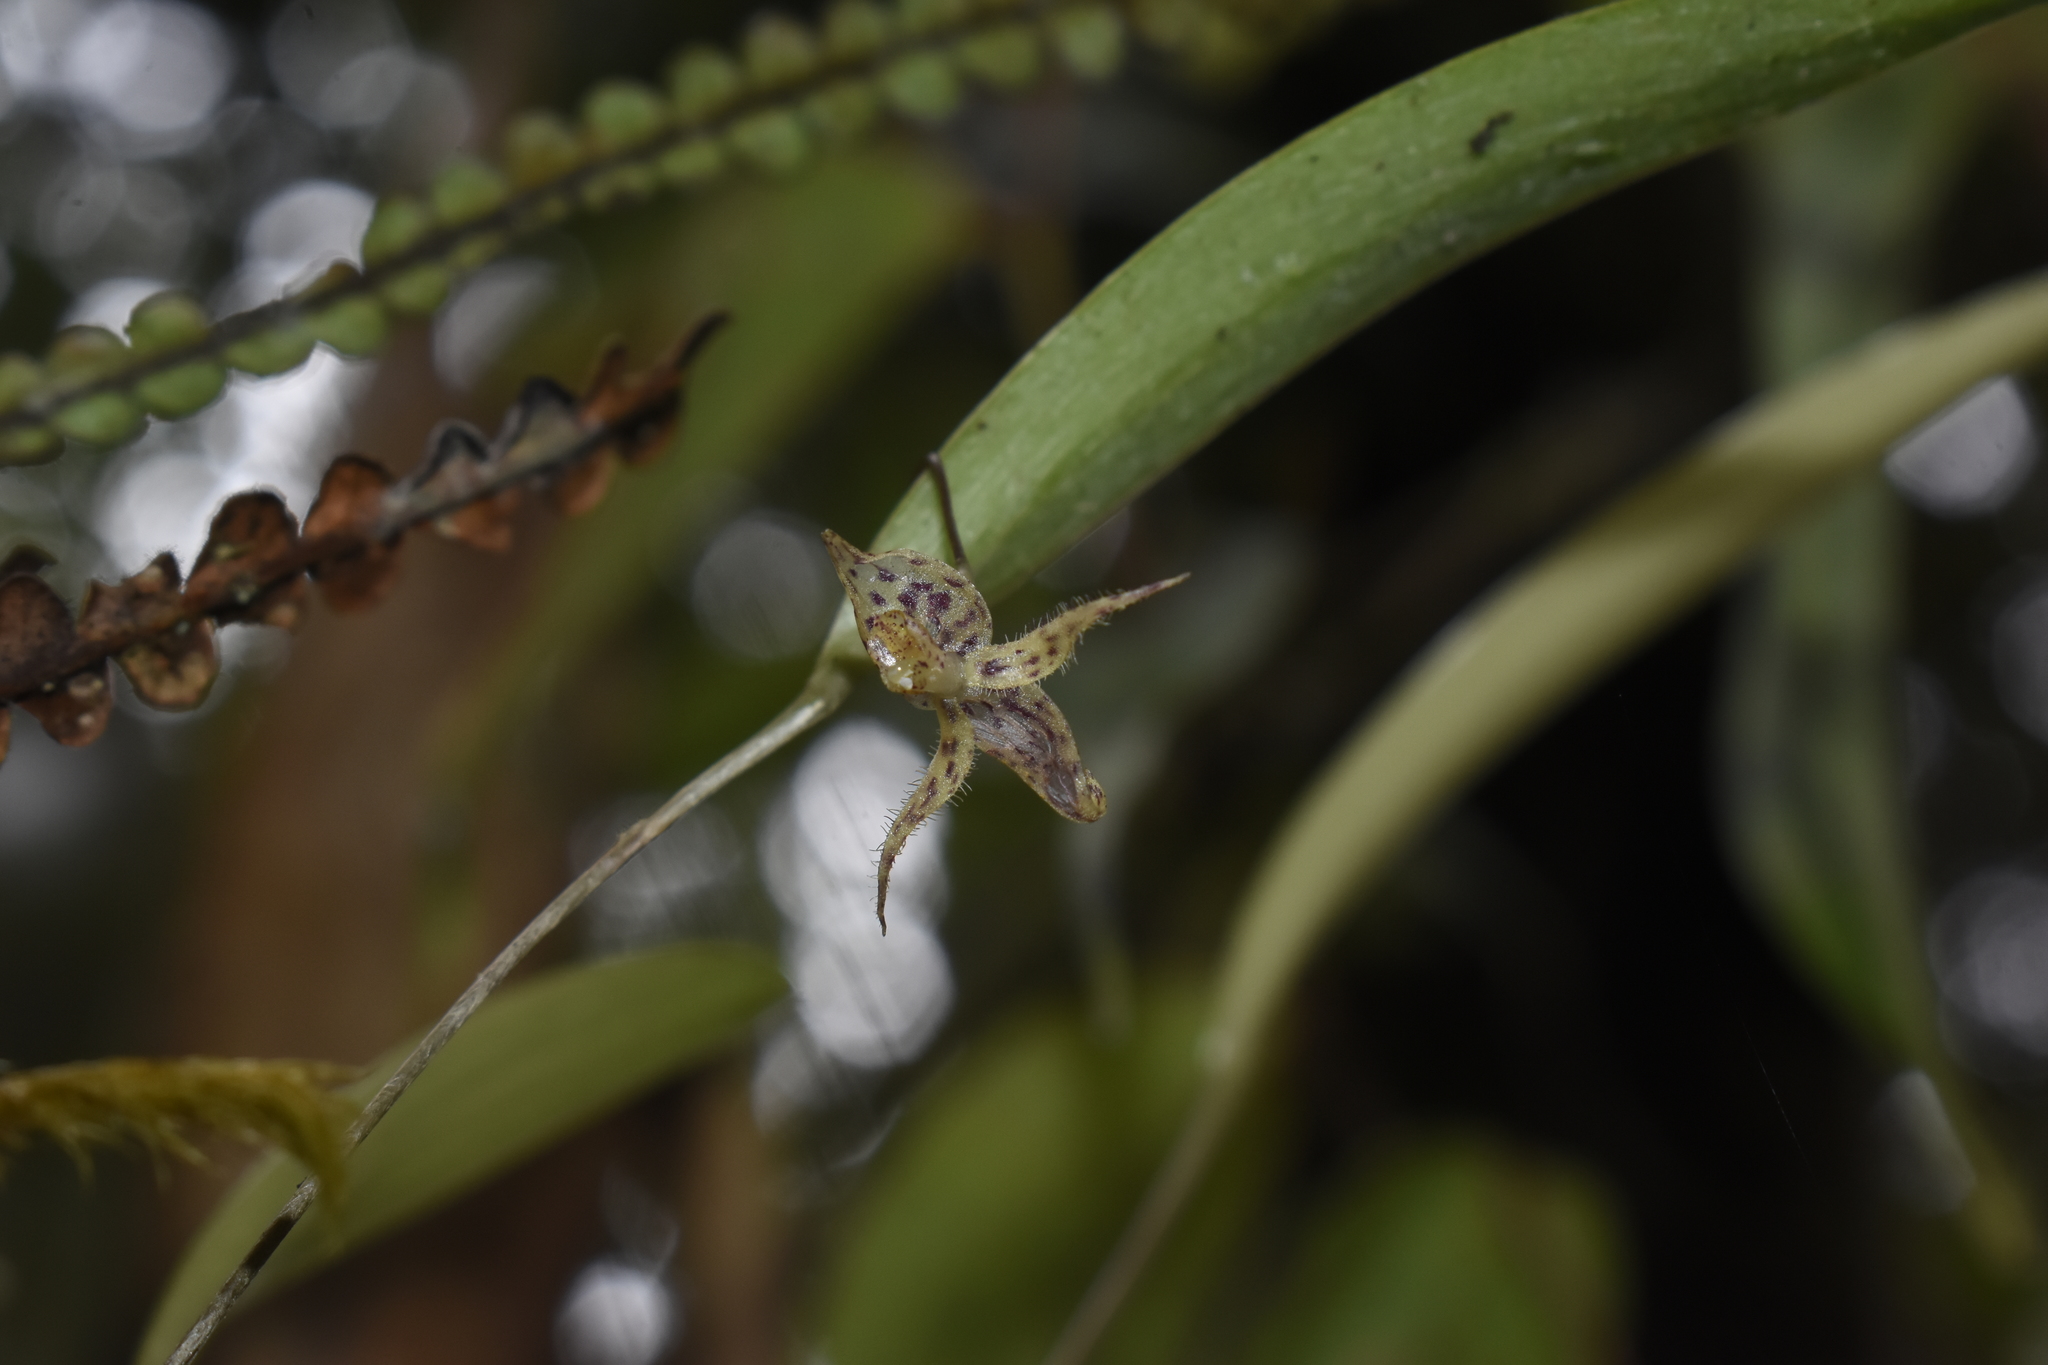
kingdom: Plantae
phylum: Tracheophyta
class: Liliopsida
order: Asparagales
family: Orchidaceae
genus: Pleurothallis
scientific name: Pleurothallis fugax
